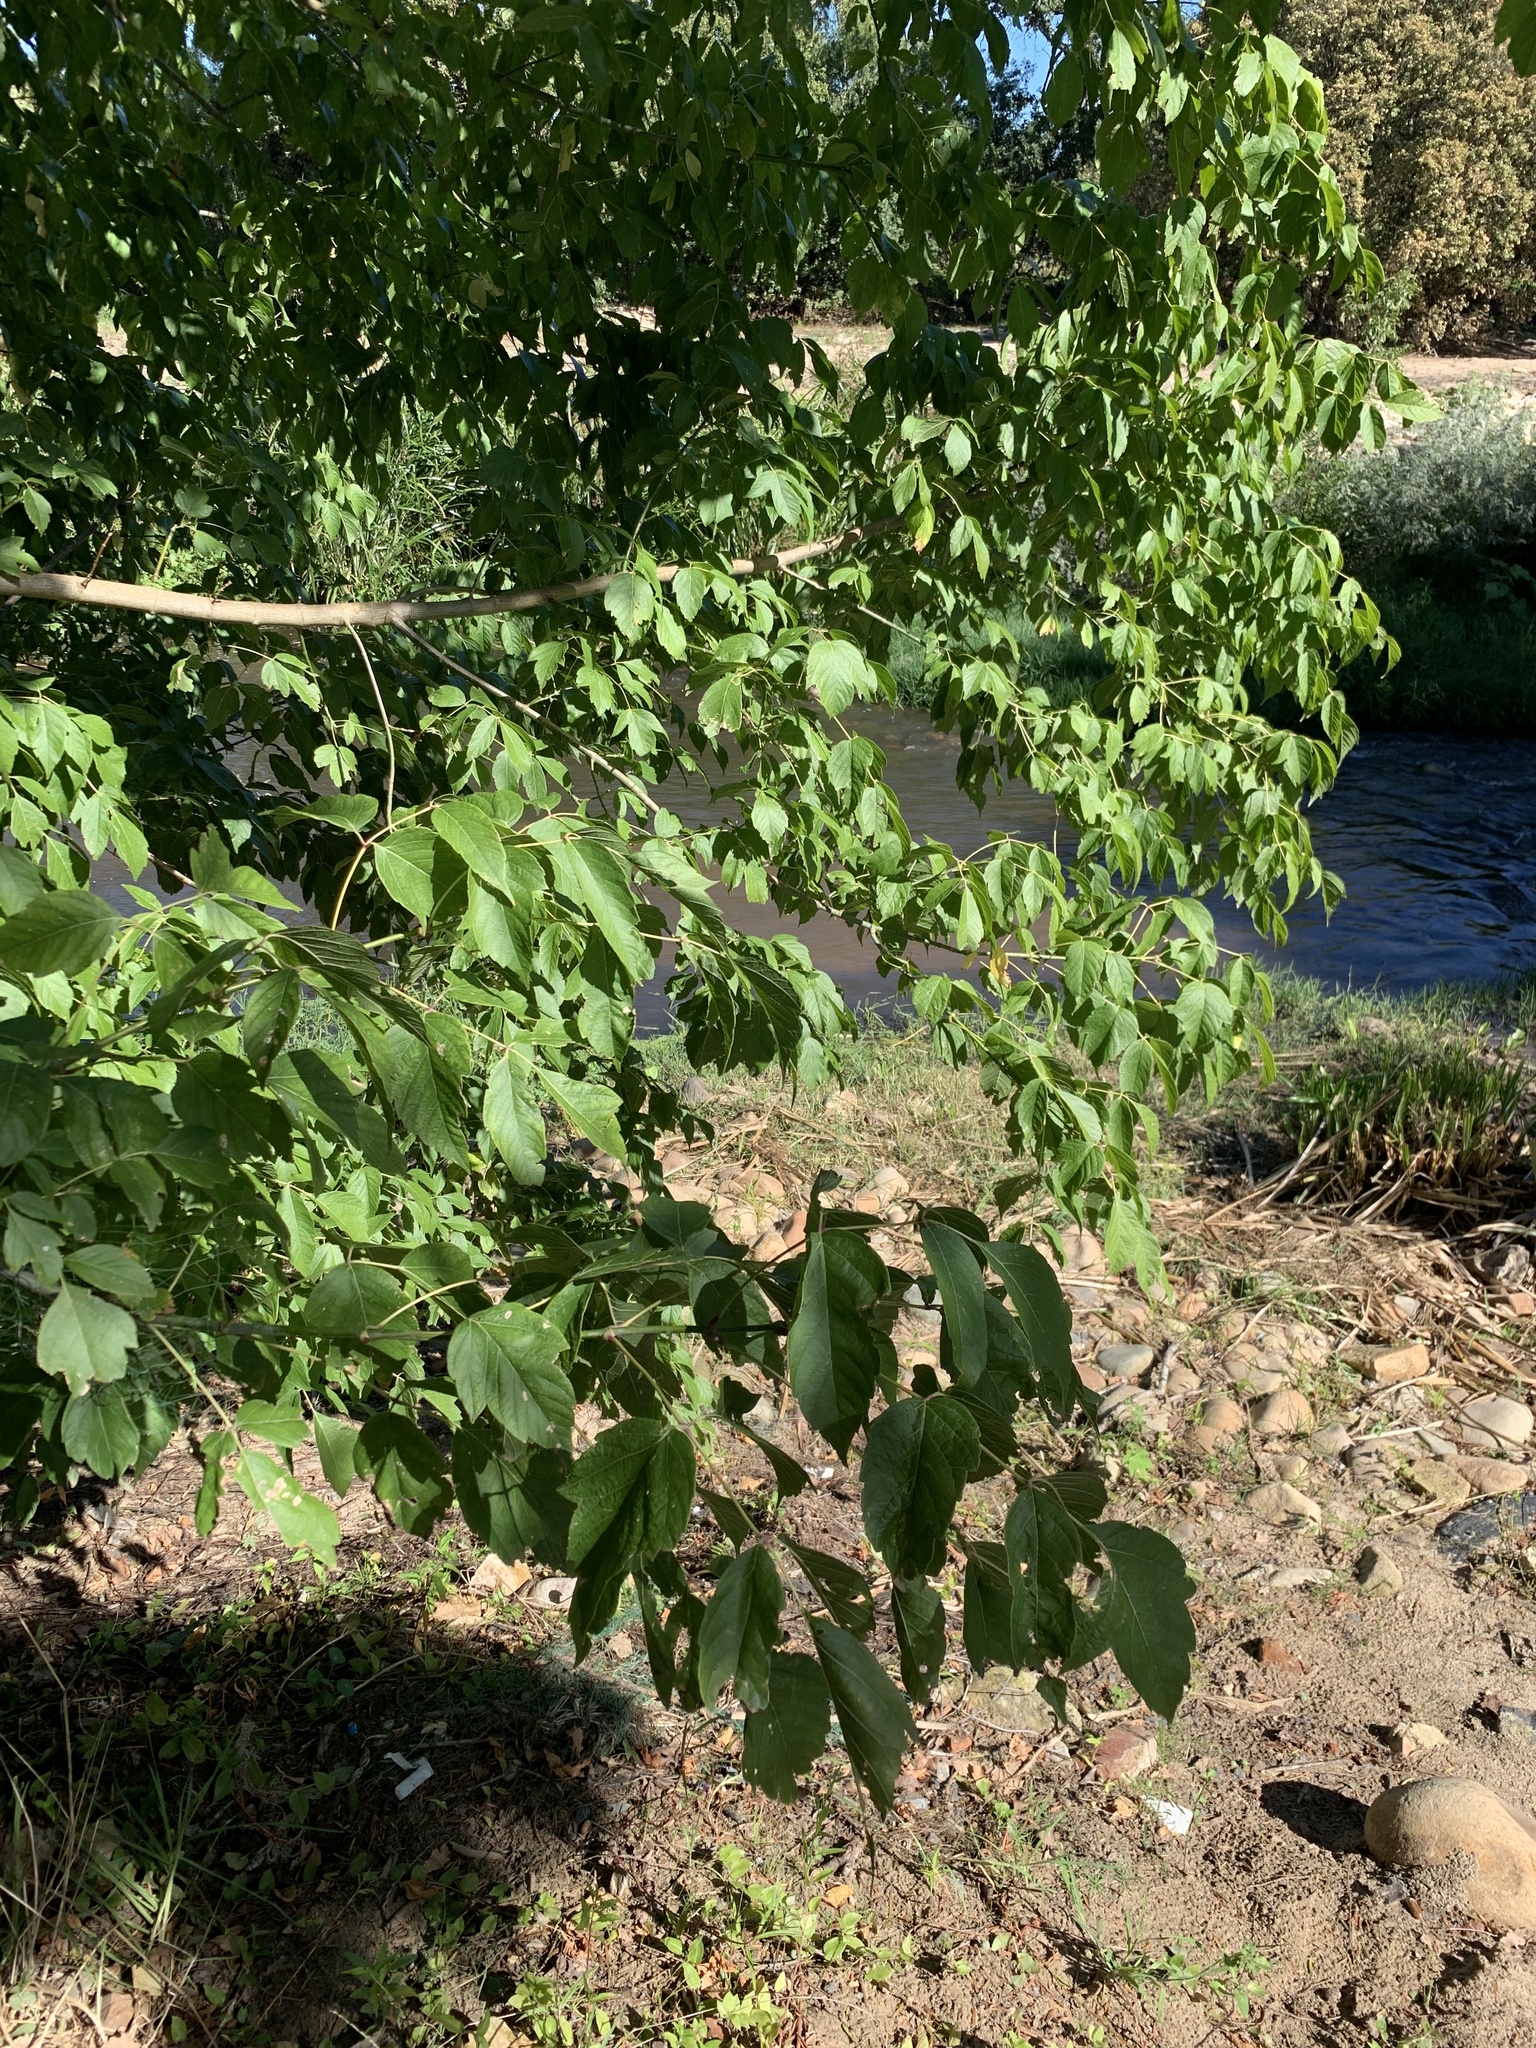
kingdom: Plantae
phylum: Tracheophyta
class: Magnoliopsida
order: Sapindales
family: Sapindaceae
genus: Acer
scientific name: Acer negundo
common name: Ashleaf maple
